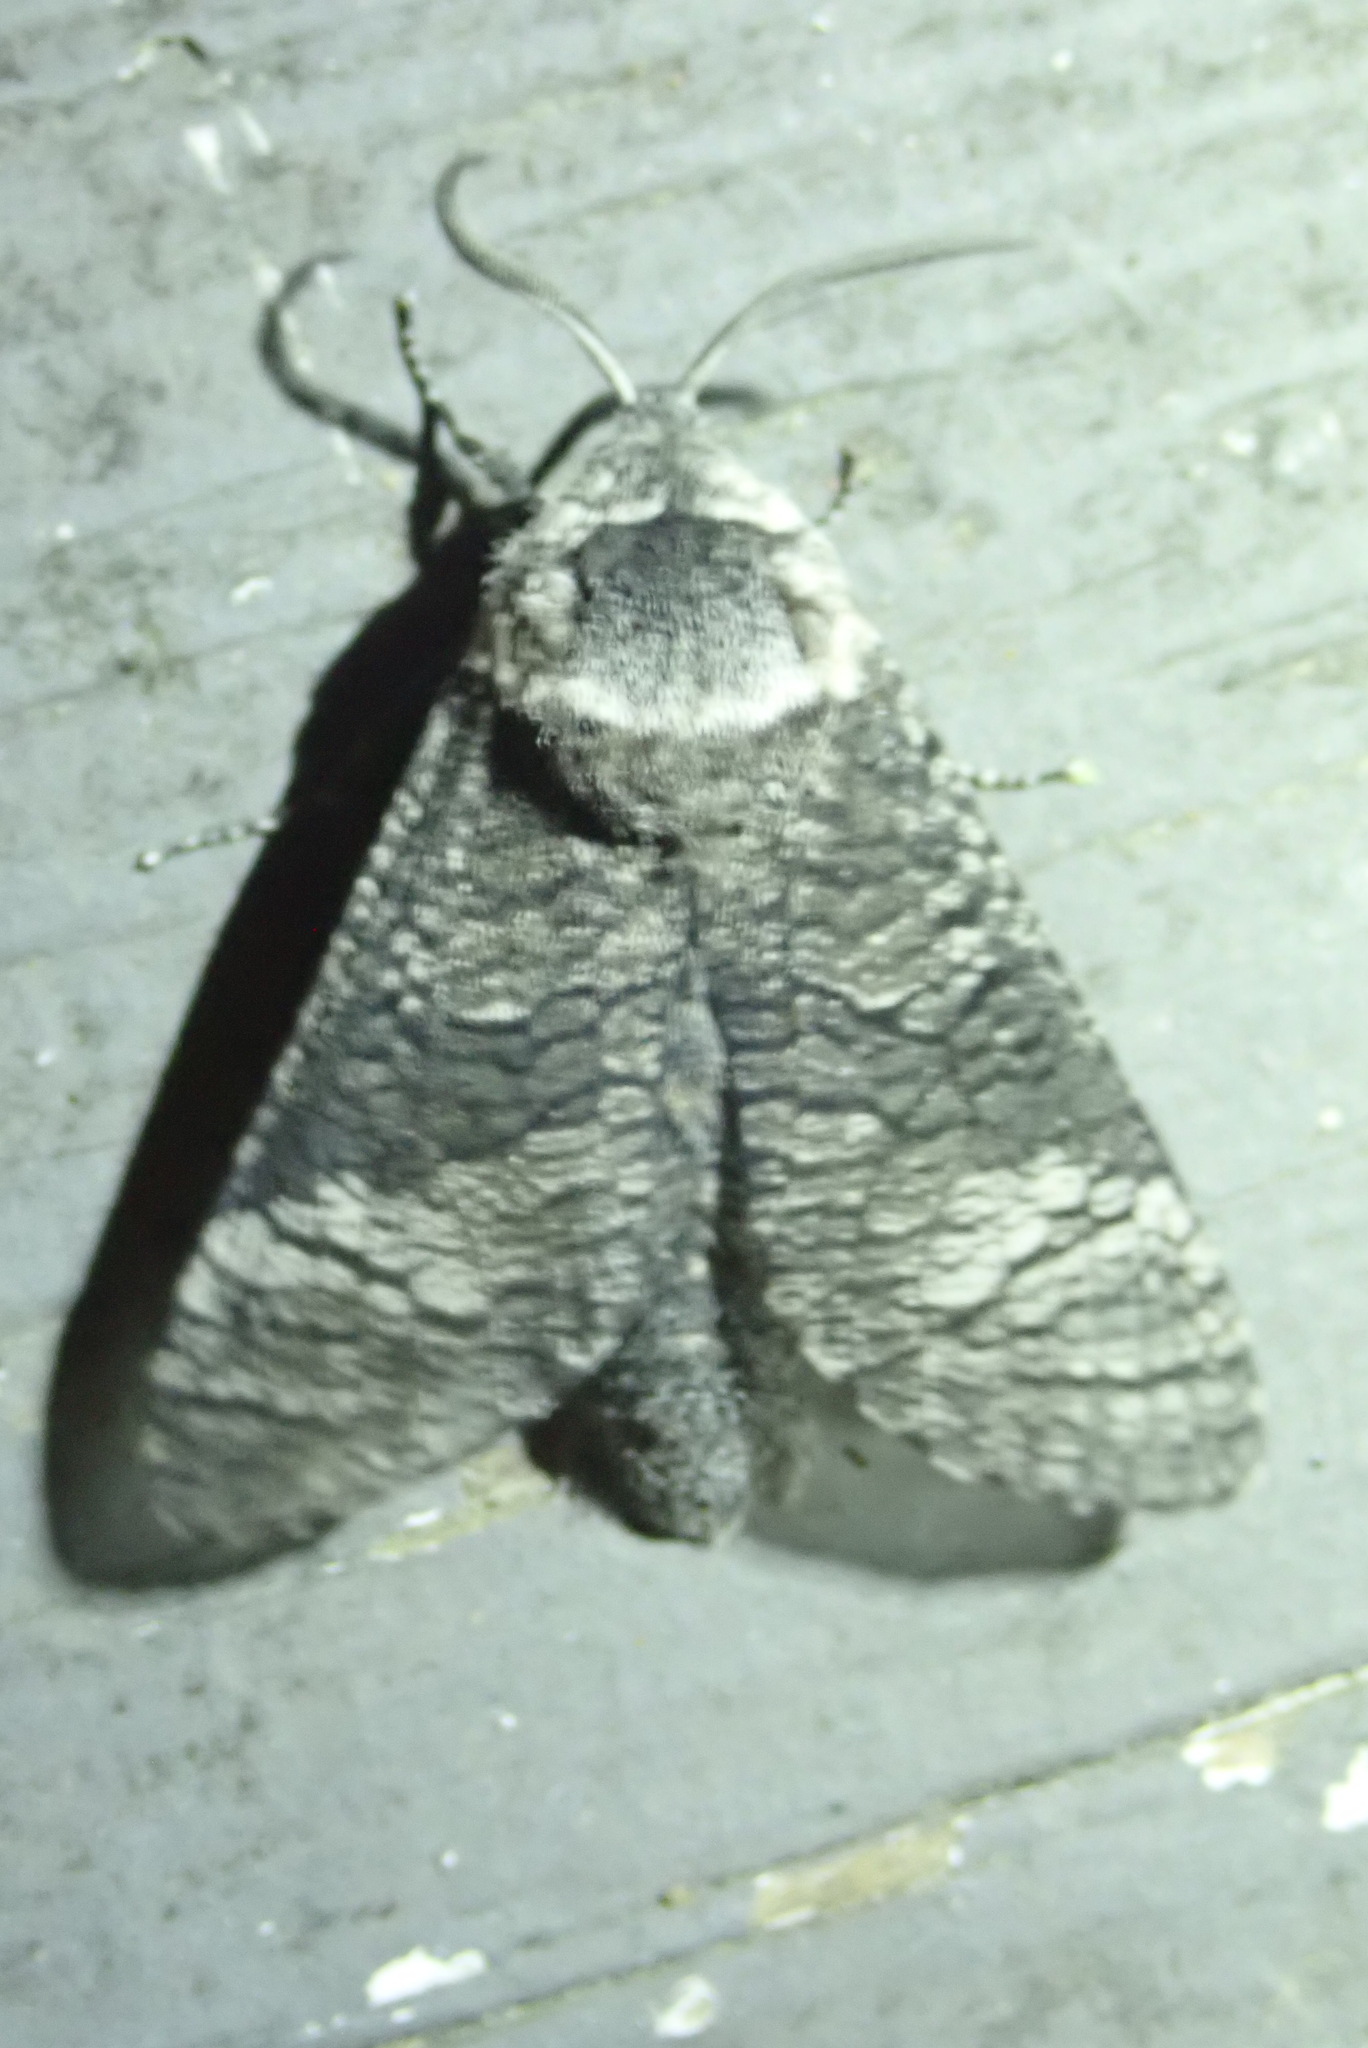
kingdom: Animalia
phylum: Arthropoda
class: Insecta
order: Lepidoptera
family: Cossidae
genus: Acossus
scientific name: Acossus centerensis
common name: Poplar carpenterworm moth
